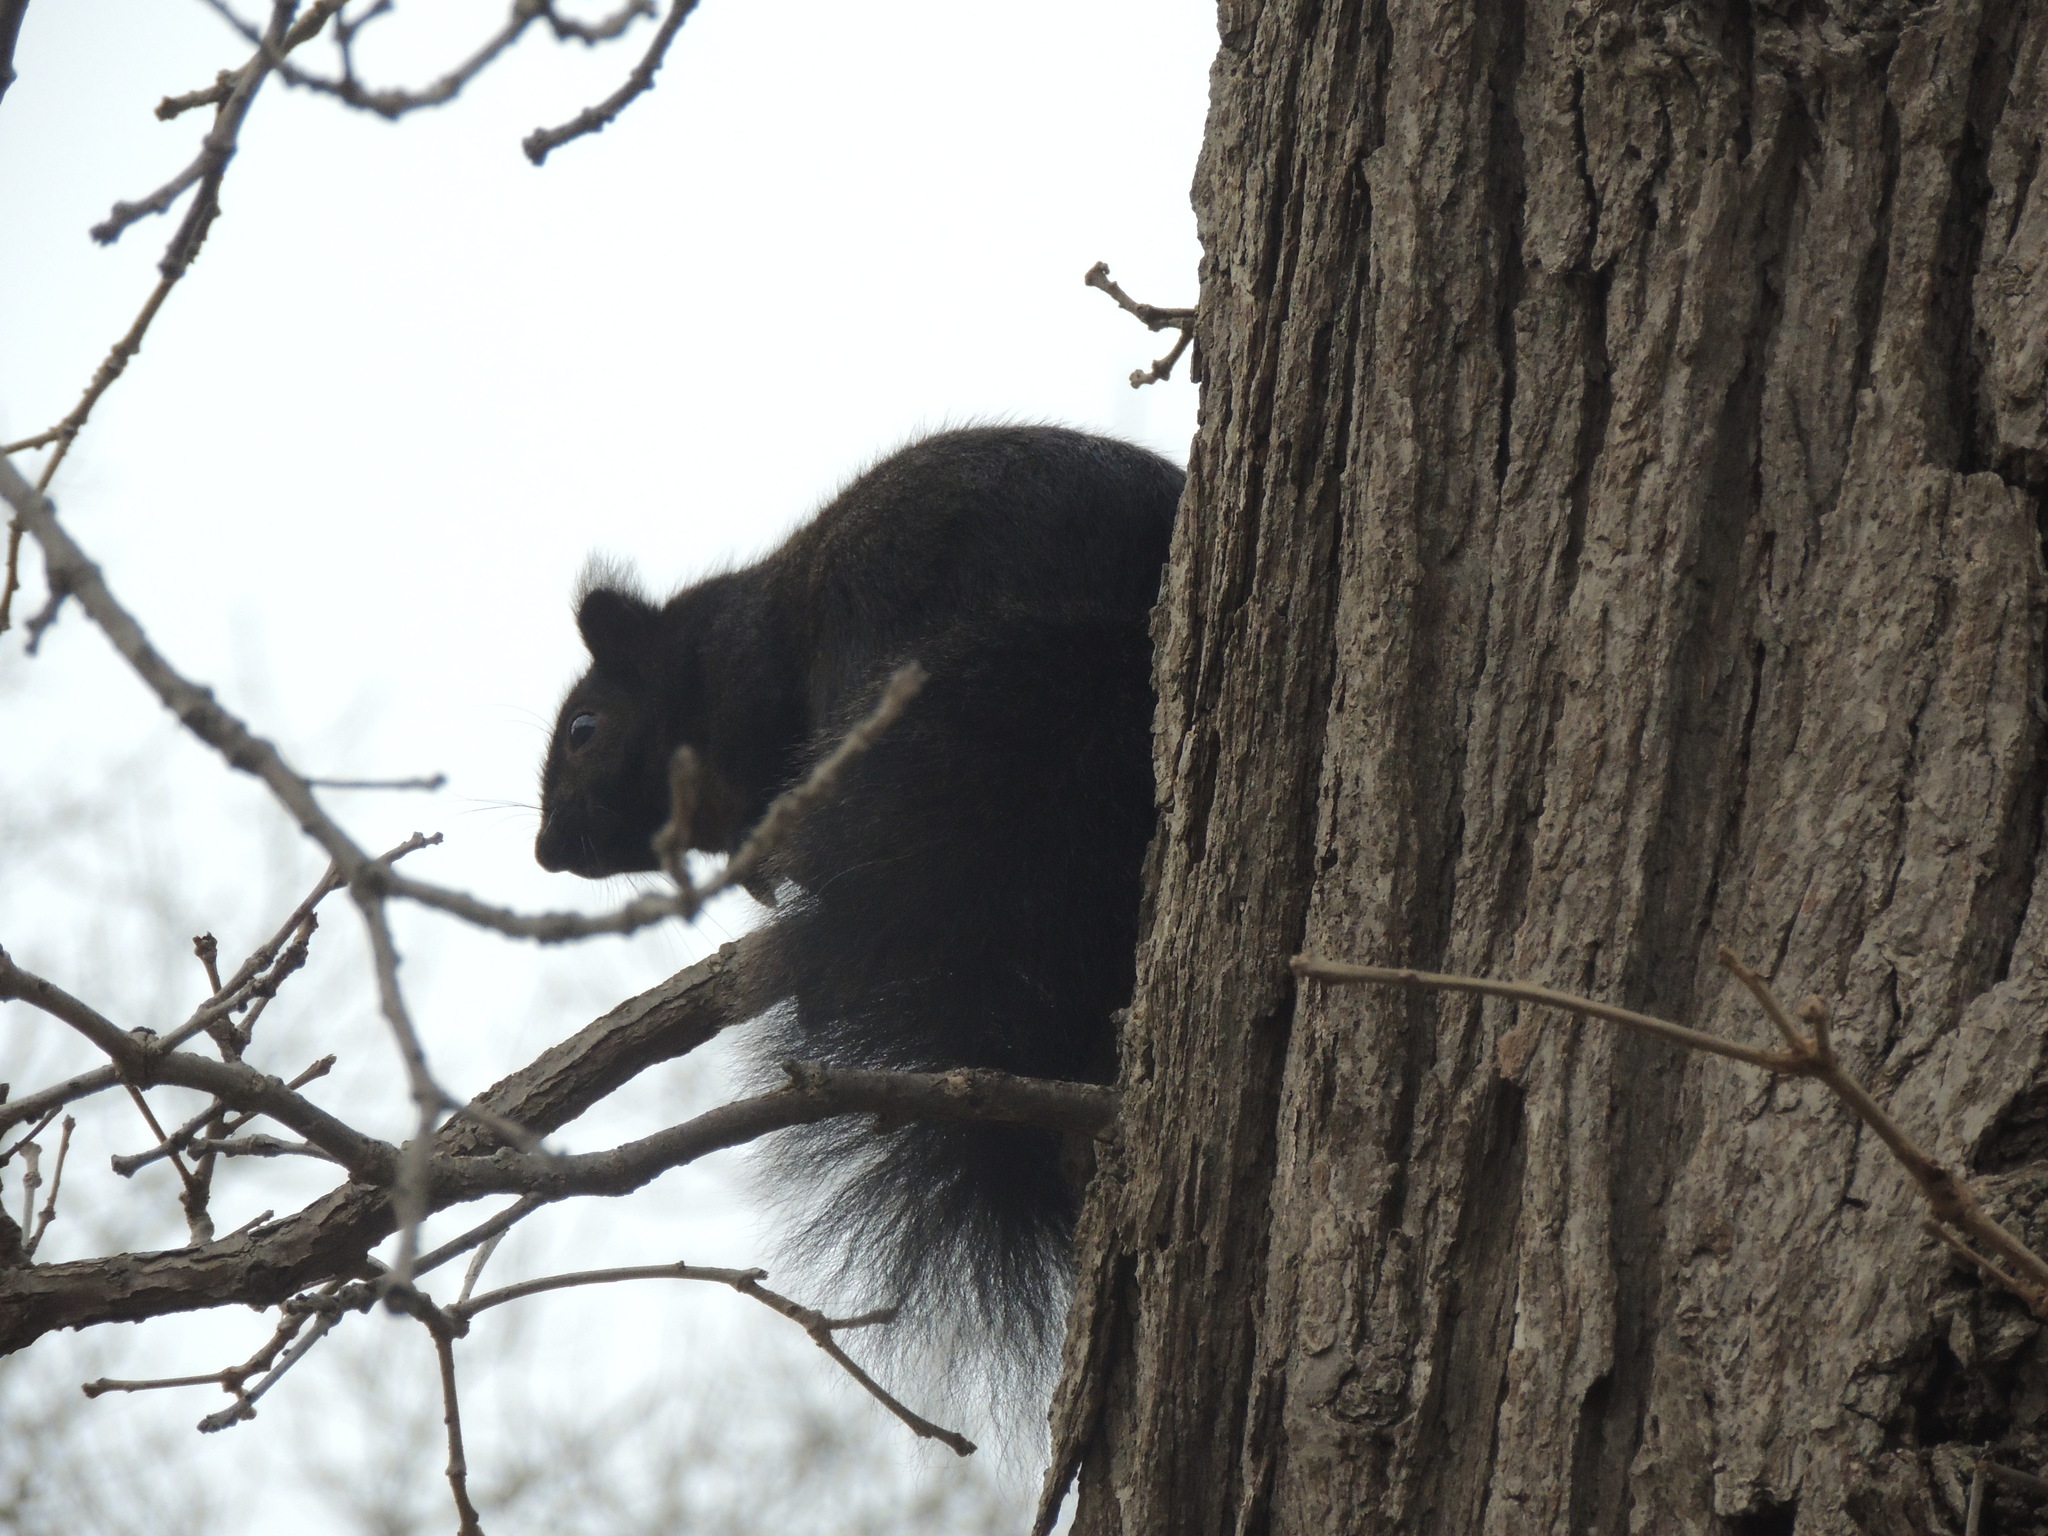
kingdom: Animalia
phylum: Chordata
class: Mammalia
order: Rodentia
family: Sciuridae
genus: Sciurus
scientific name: Sciurus carolinensis
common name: Eastern gray squirrel
